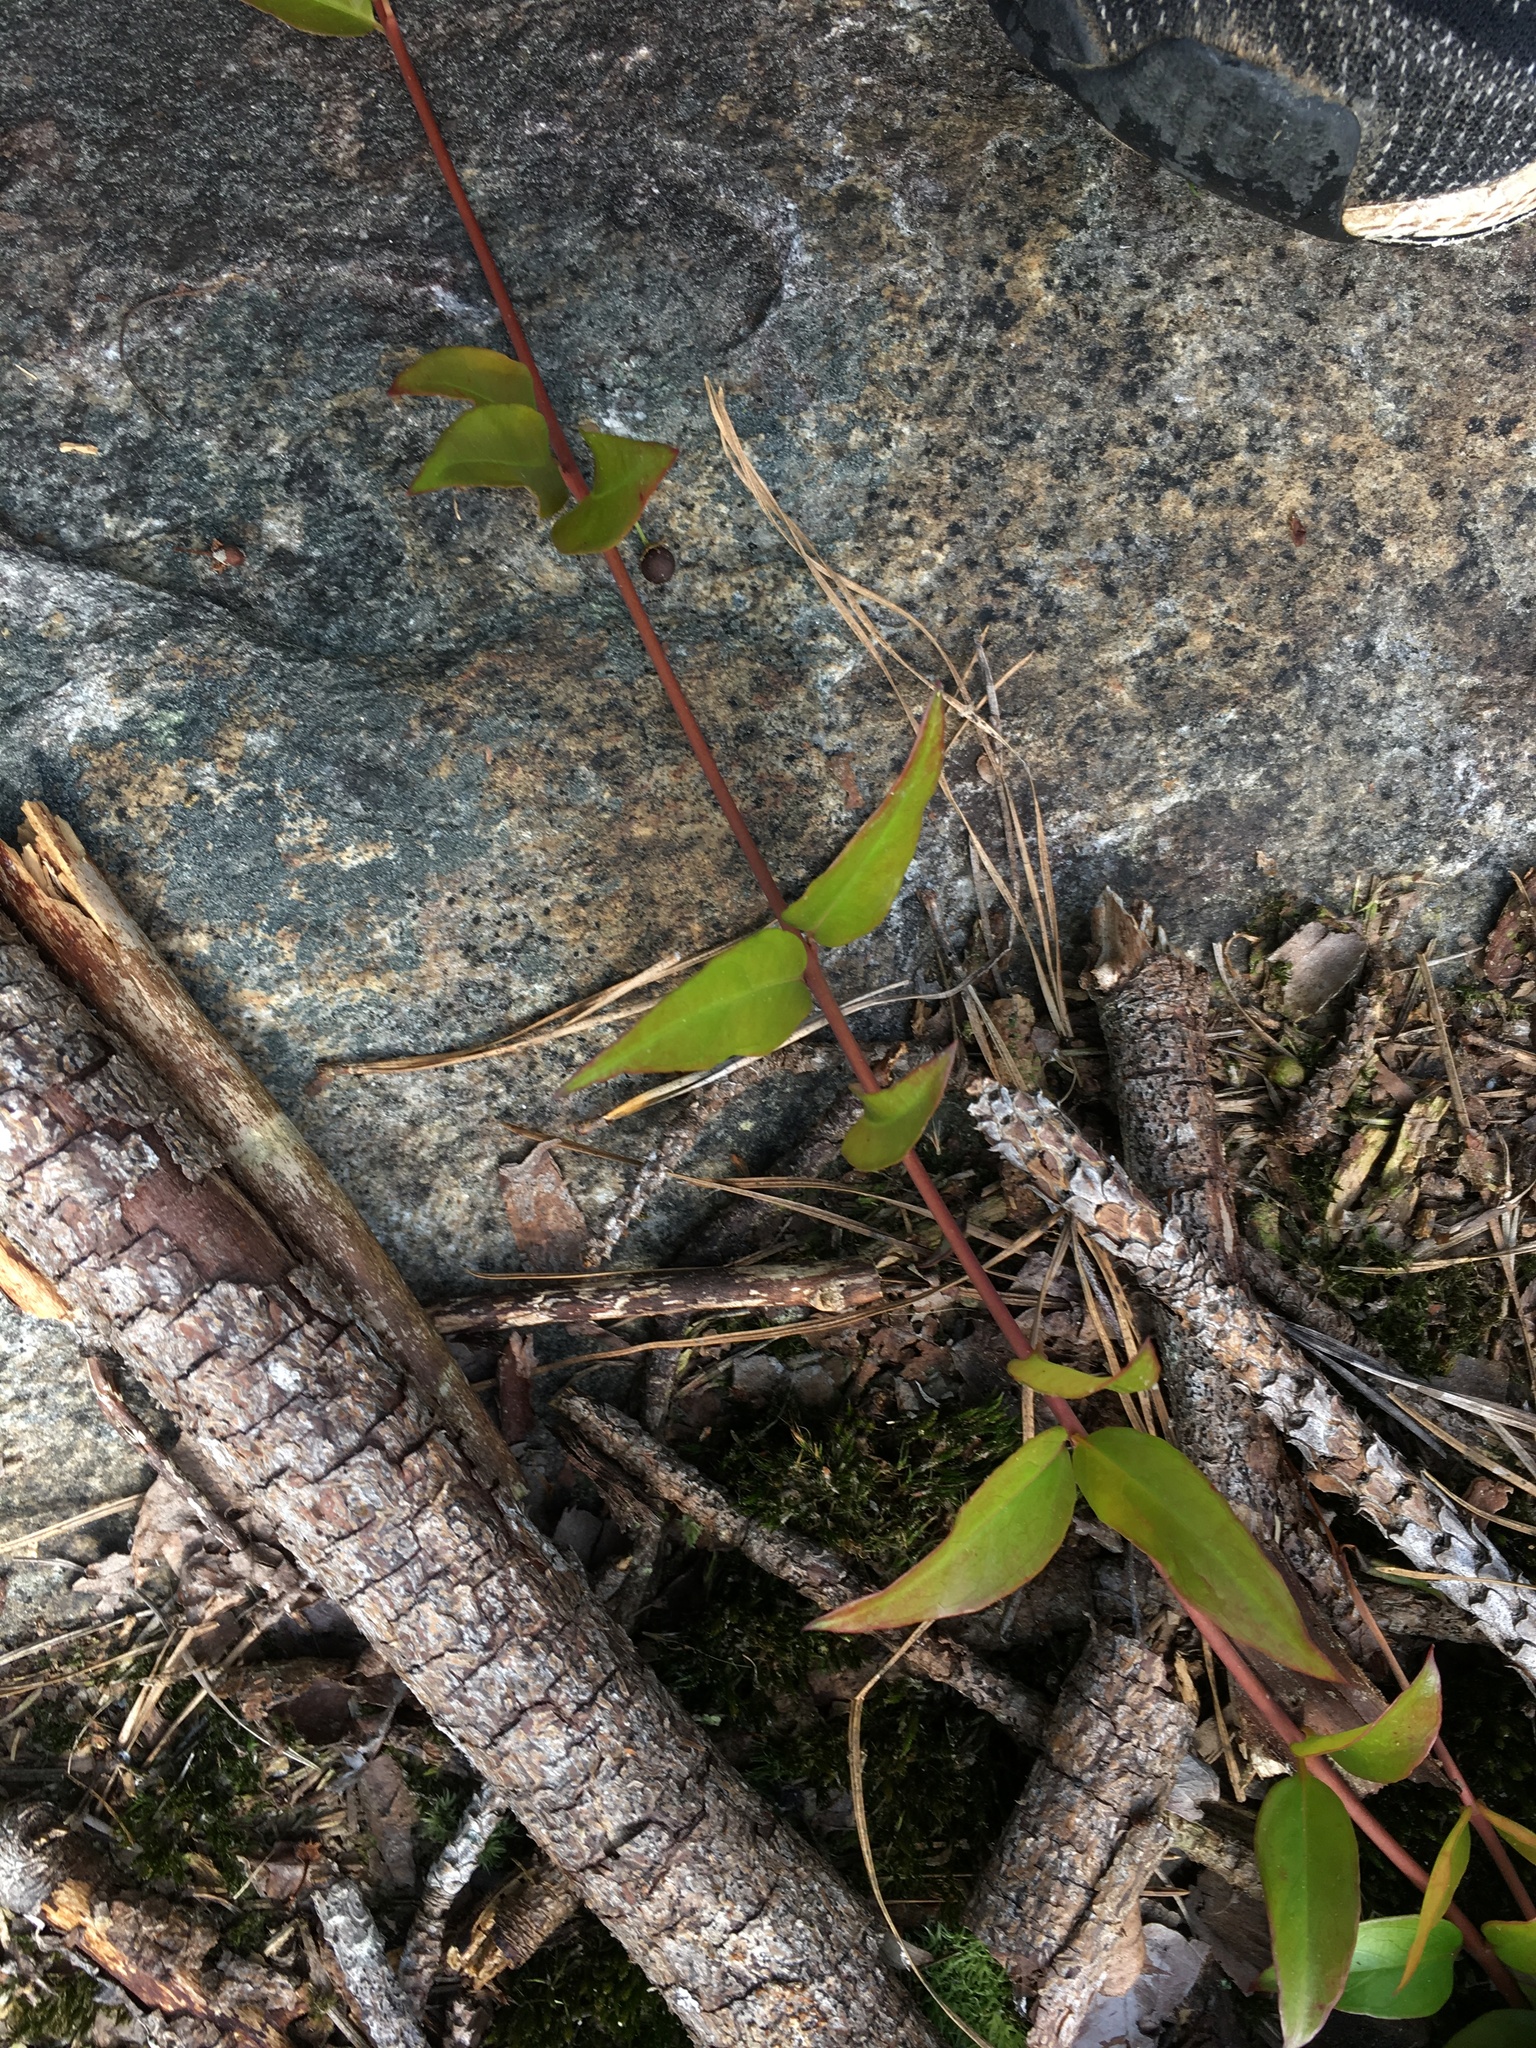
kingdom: Plantae
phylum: Tracheophyta
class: Magnoliopsida
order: Gentianales
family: Gelsemiaceae
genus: Gelsemium
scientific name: Gelsemium sempervirens
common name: Carolina-jasmine
